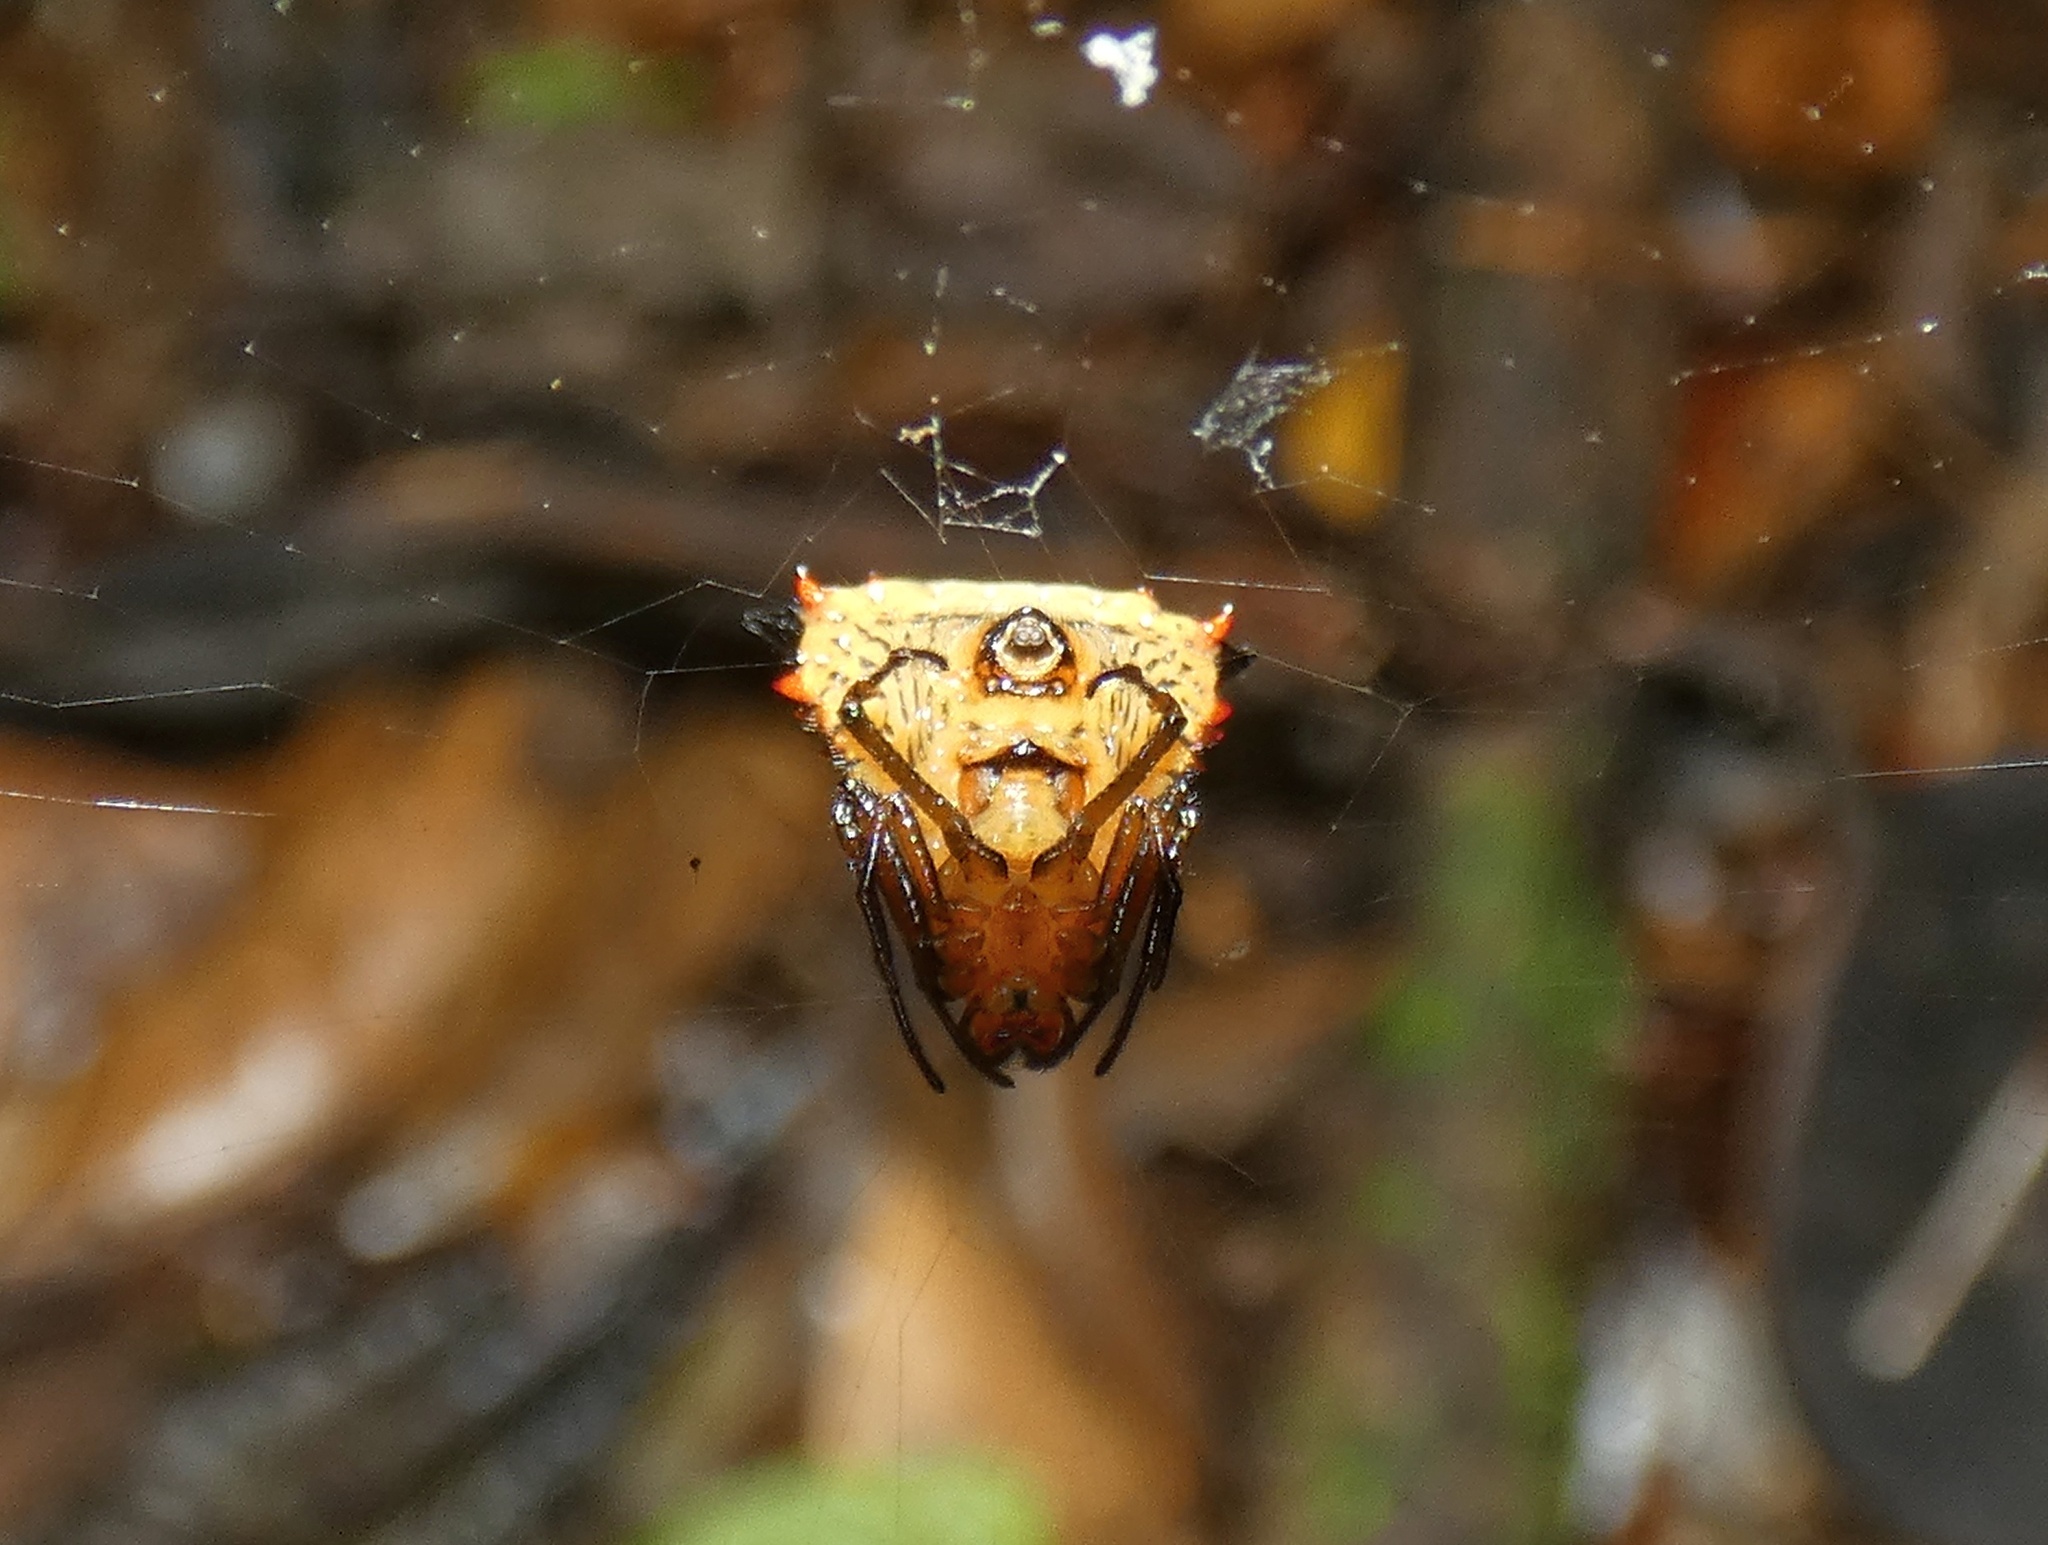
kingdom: Animalia
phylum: Arthropoda
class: Arachnida
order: Araneae
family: Araneidae
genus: Micrathena
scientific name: Micrathena excavata
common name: Orb weavers
